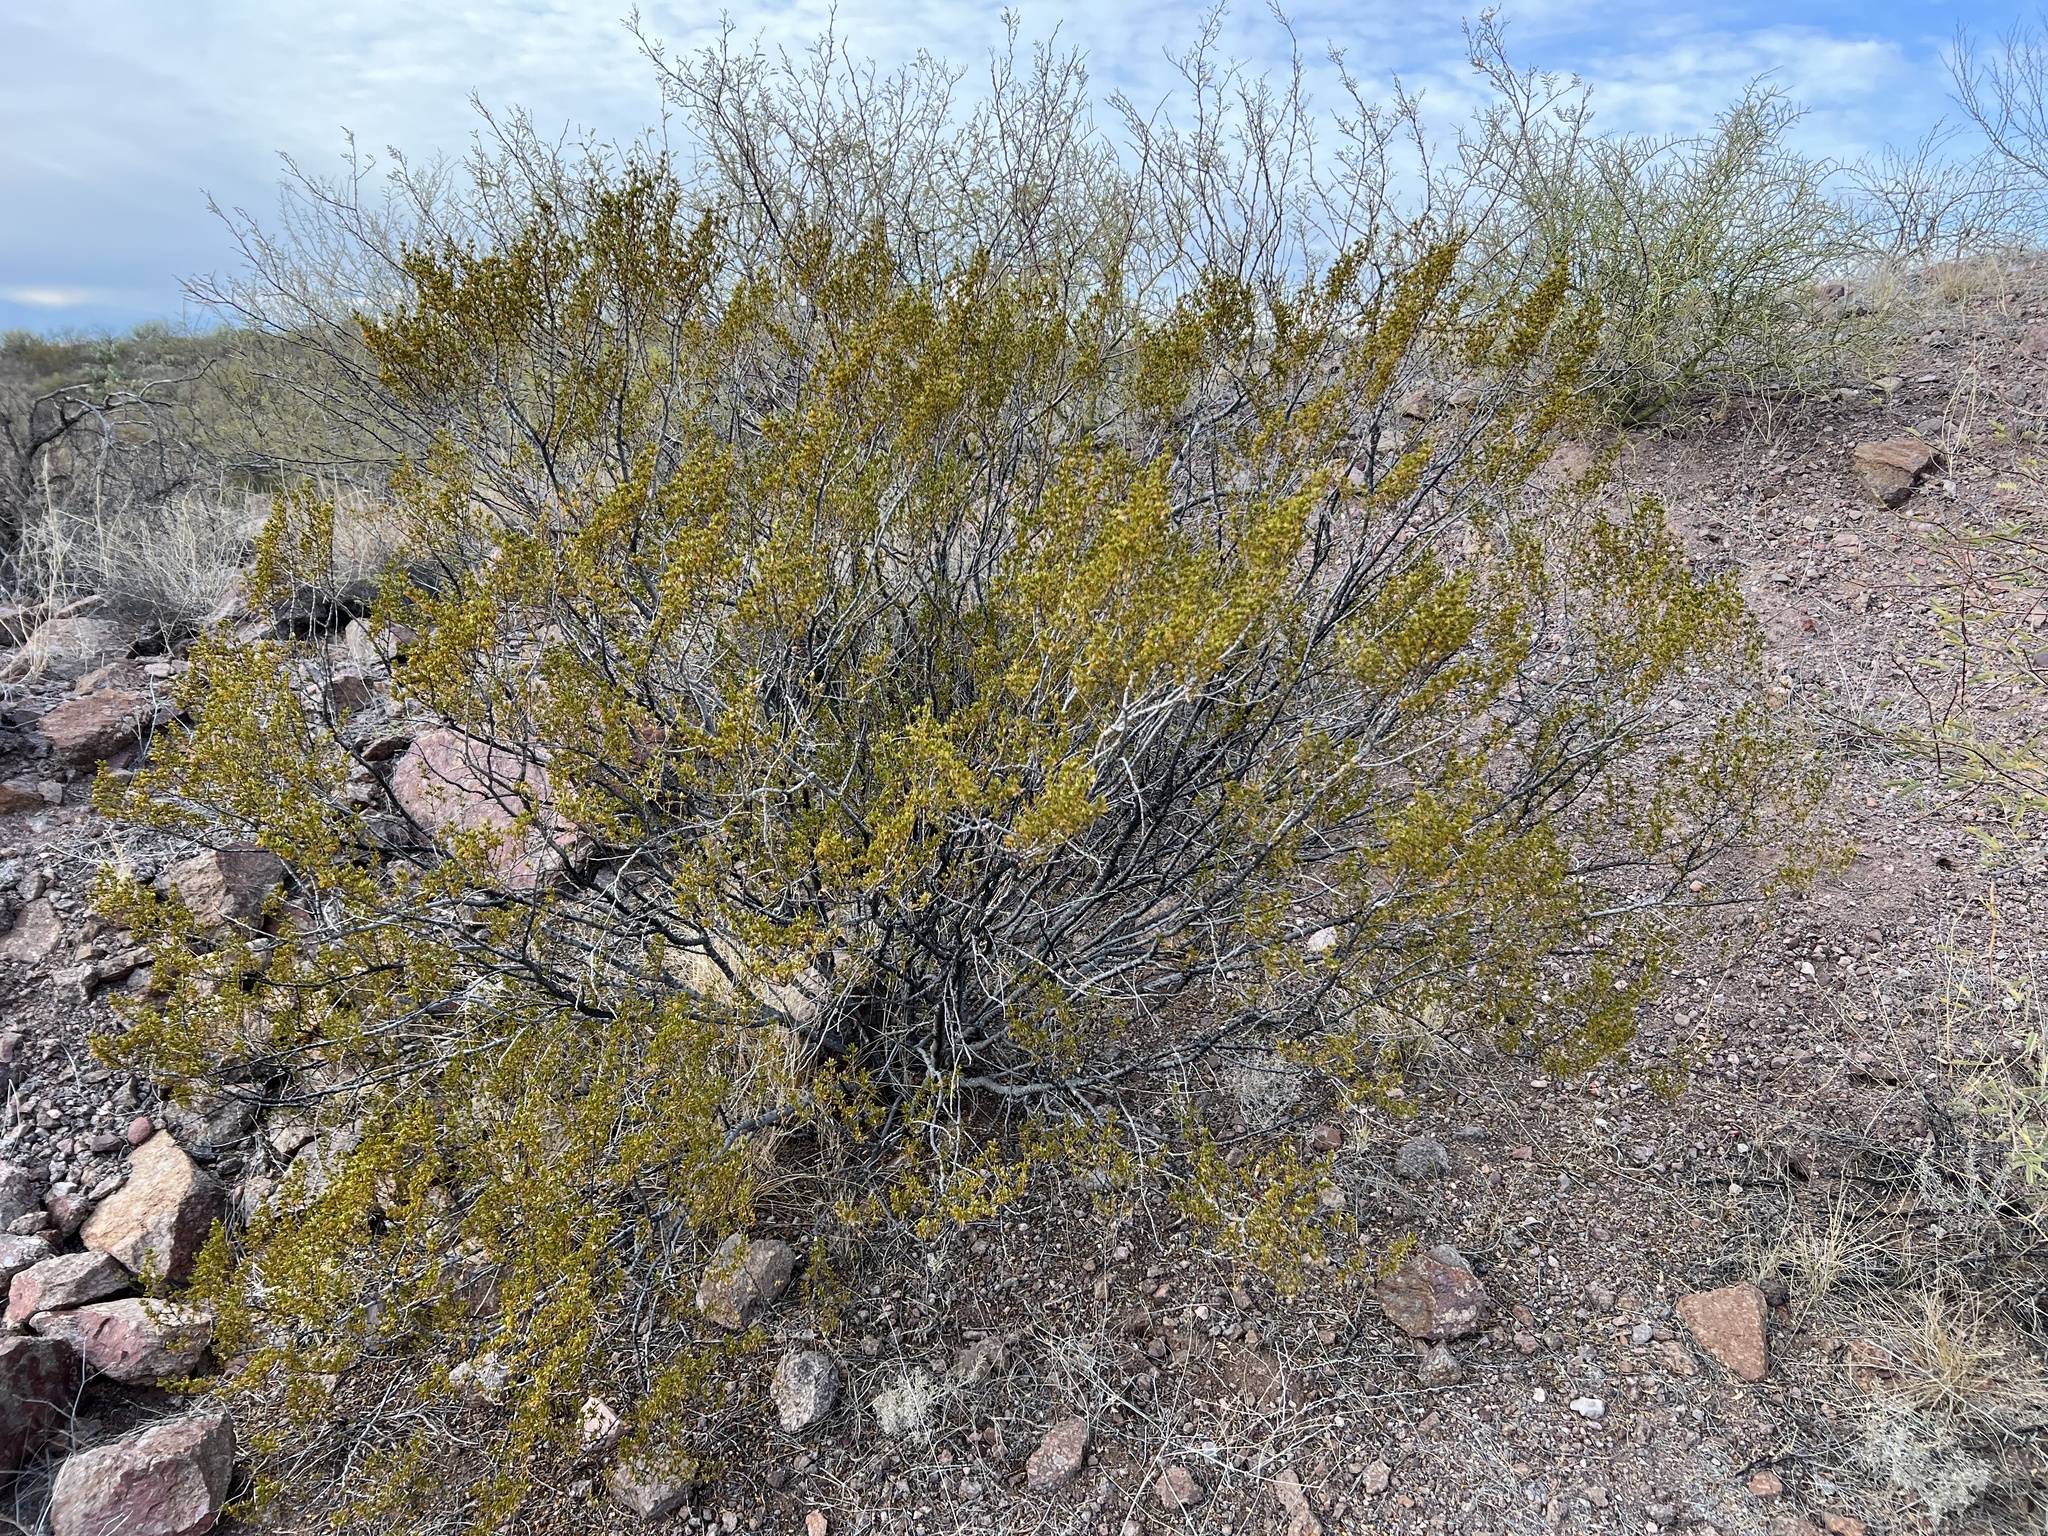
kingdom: Plantae
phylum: Tracheophyta
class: Magnoliopsida
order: Zygophyllales
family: Zygophyllaceae
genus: Larrea
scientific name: Larrea tridentata
